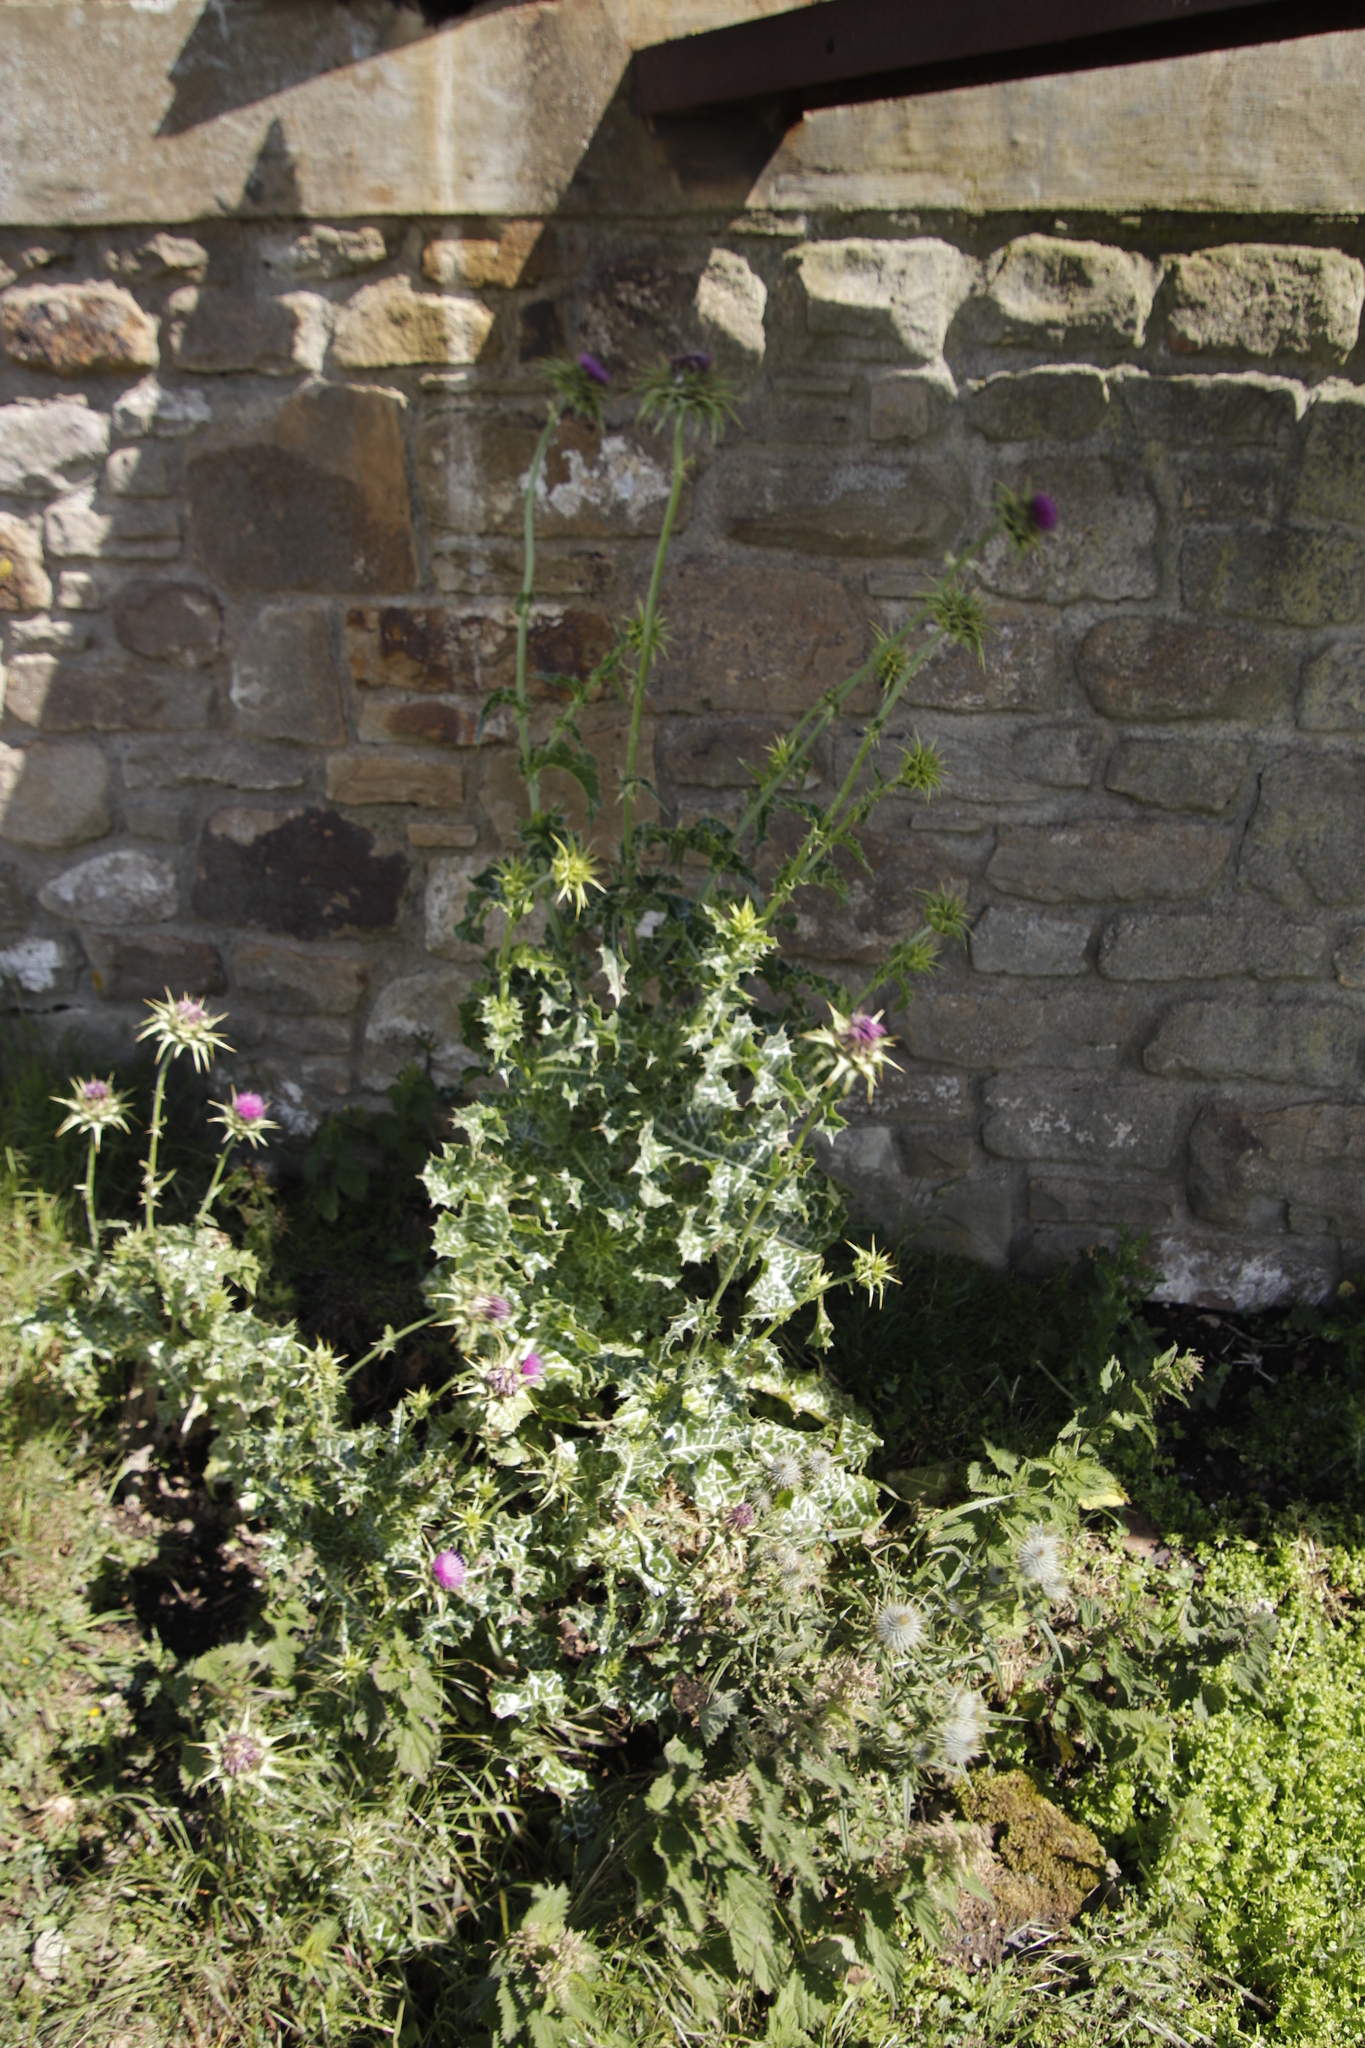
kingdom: Plantae
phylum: Tracheophyta
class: Magnoliopsida
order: Asterales
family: Asteraceae
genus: Silybum
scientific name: Silybum marianum
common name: Milk thistle
